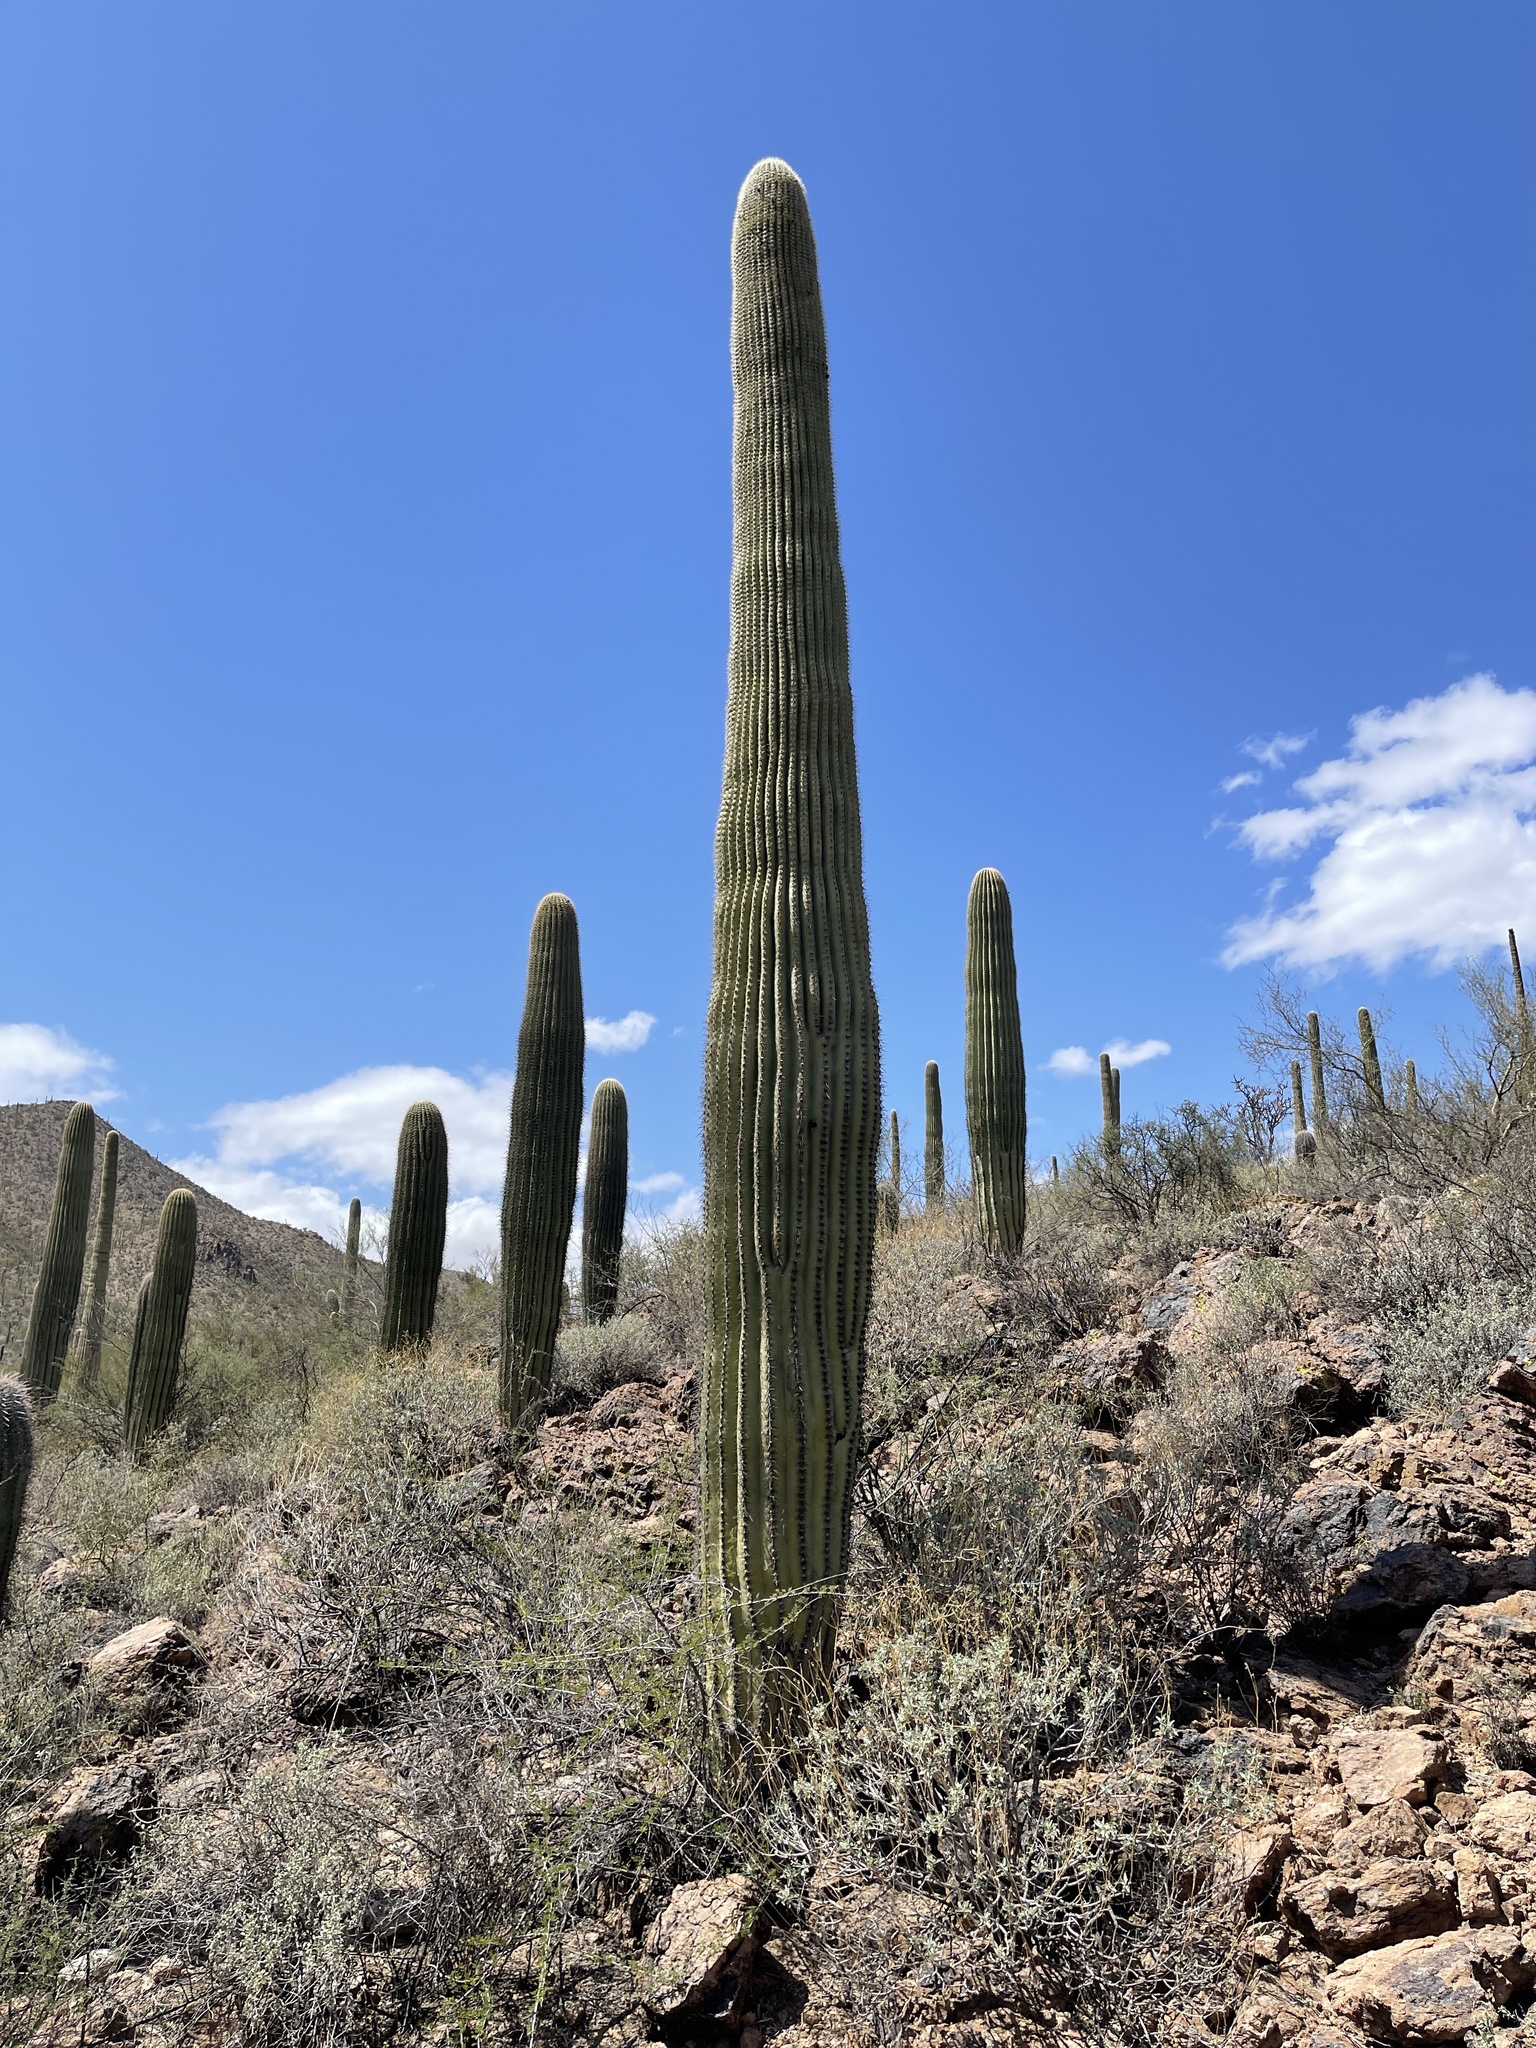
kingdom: Plantae
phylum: Tracheophyta
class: Magnoliopsida
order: Caryophyllales
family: Cactaceae
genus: Carnegiea
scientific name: Carnegiea gigantea
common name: Saguaro
